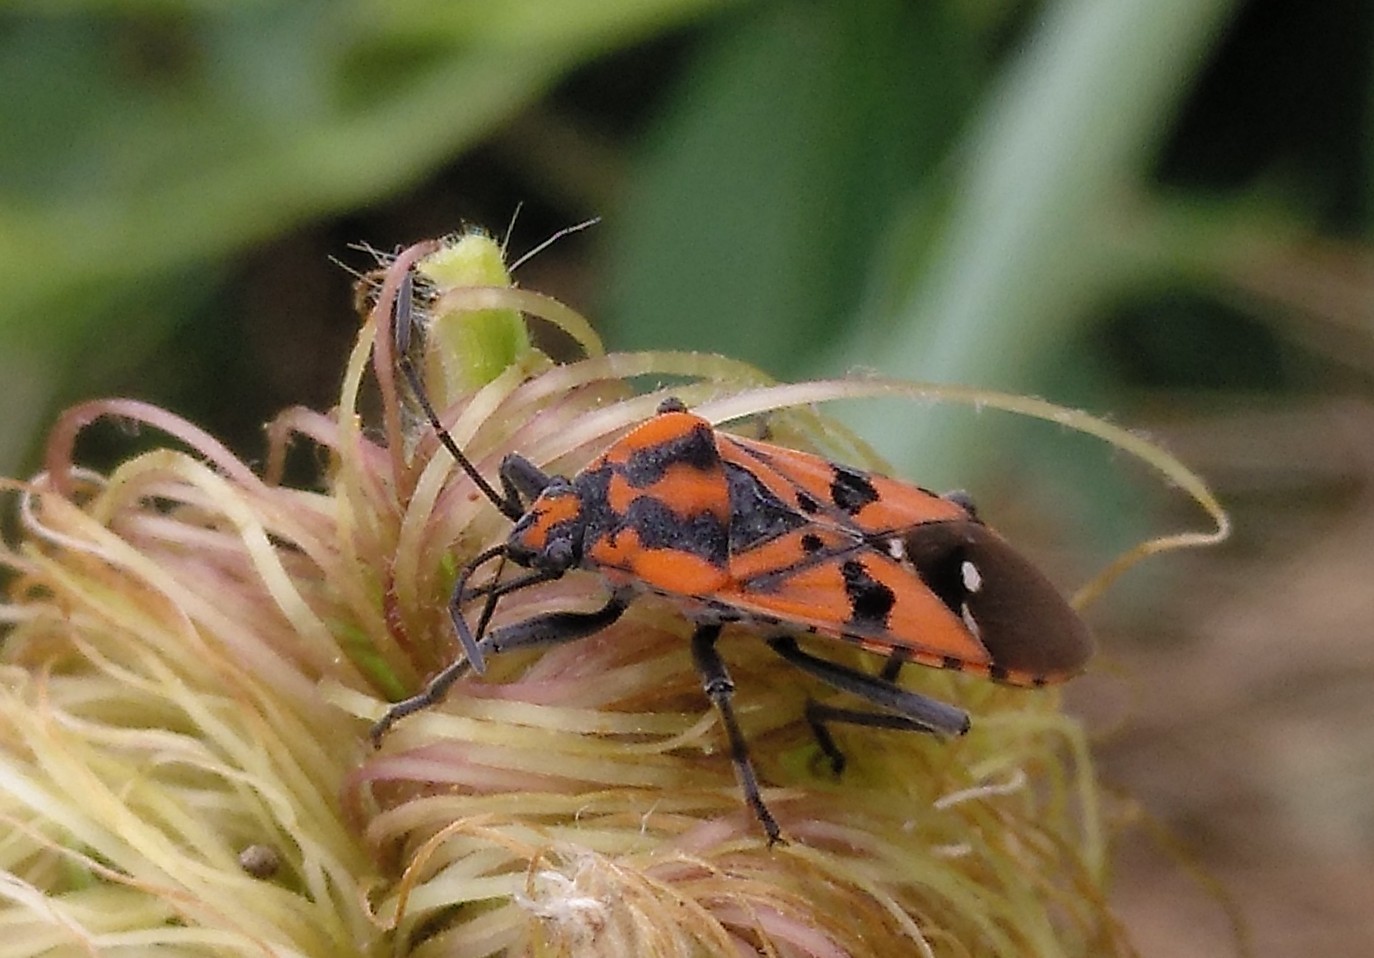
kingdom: Animalia
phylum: Arthropoda
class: Insecta
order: Hemiptera
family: Lygaeidae
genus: Spilostethus
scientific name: Spilostethus pandurus
